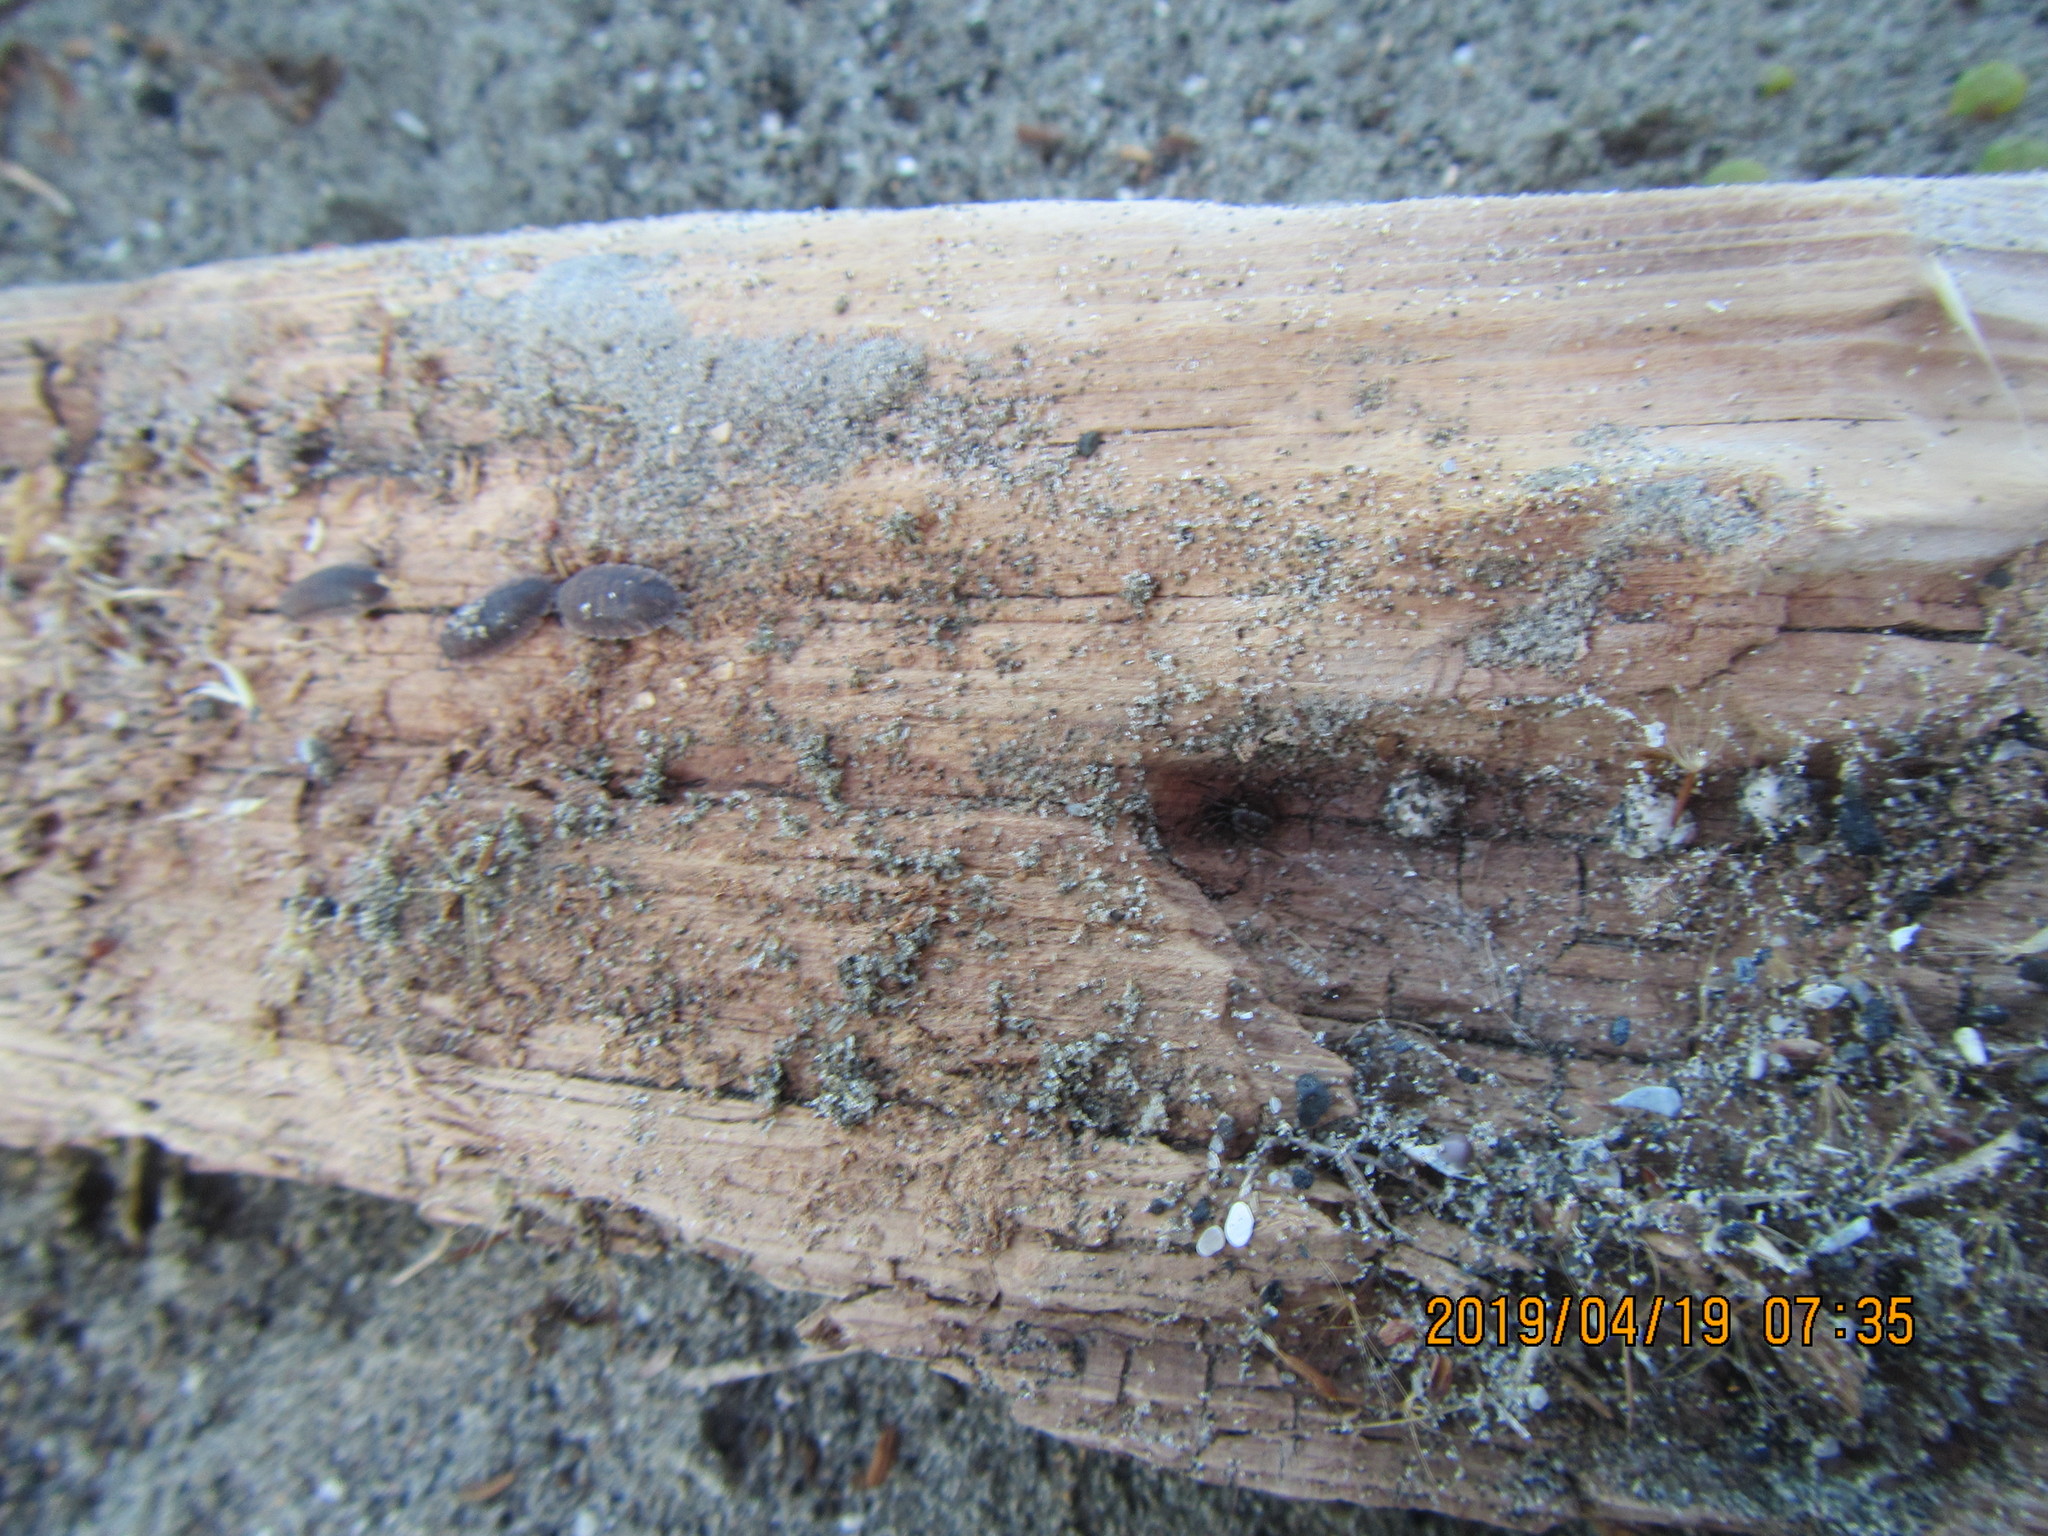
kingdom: Animalia
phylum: Arthropoda
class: Arachnida
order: Araneae
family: Theridiidae
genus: Steatoda
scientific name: Steatoda lepida
